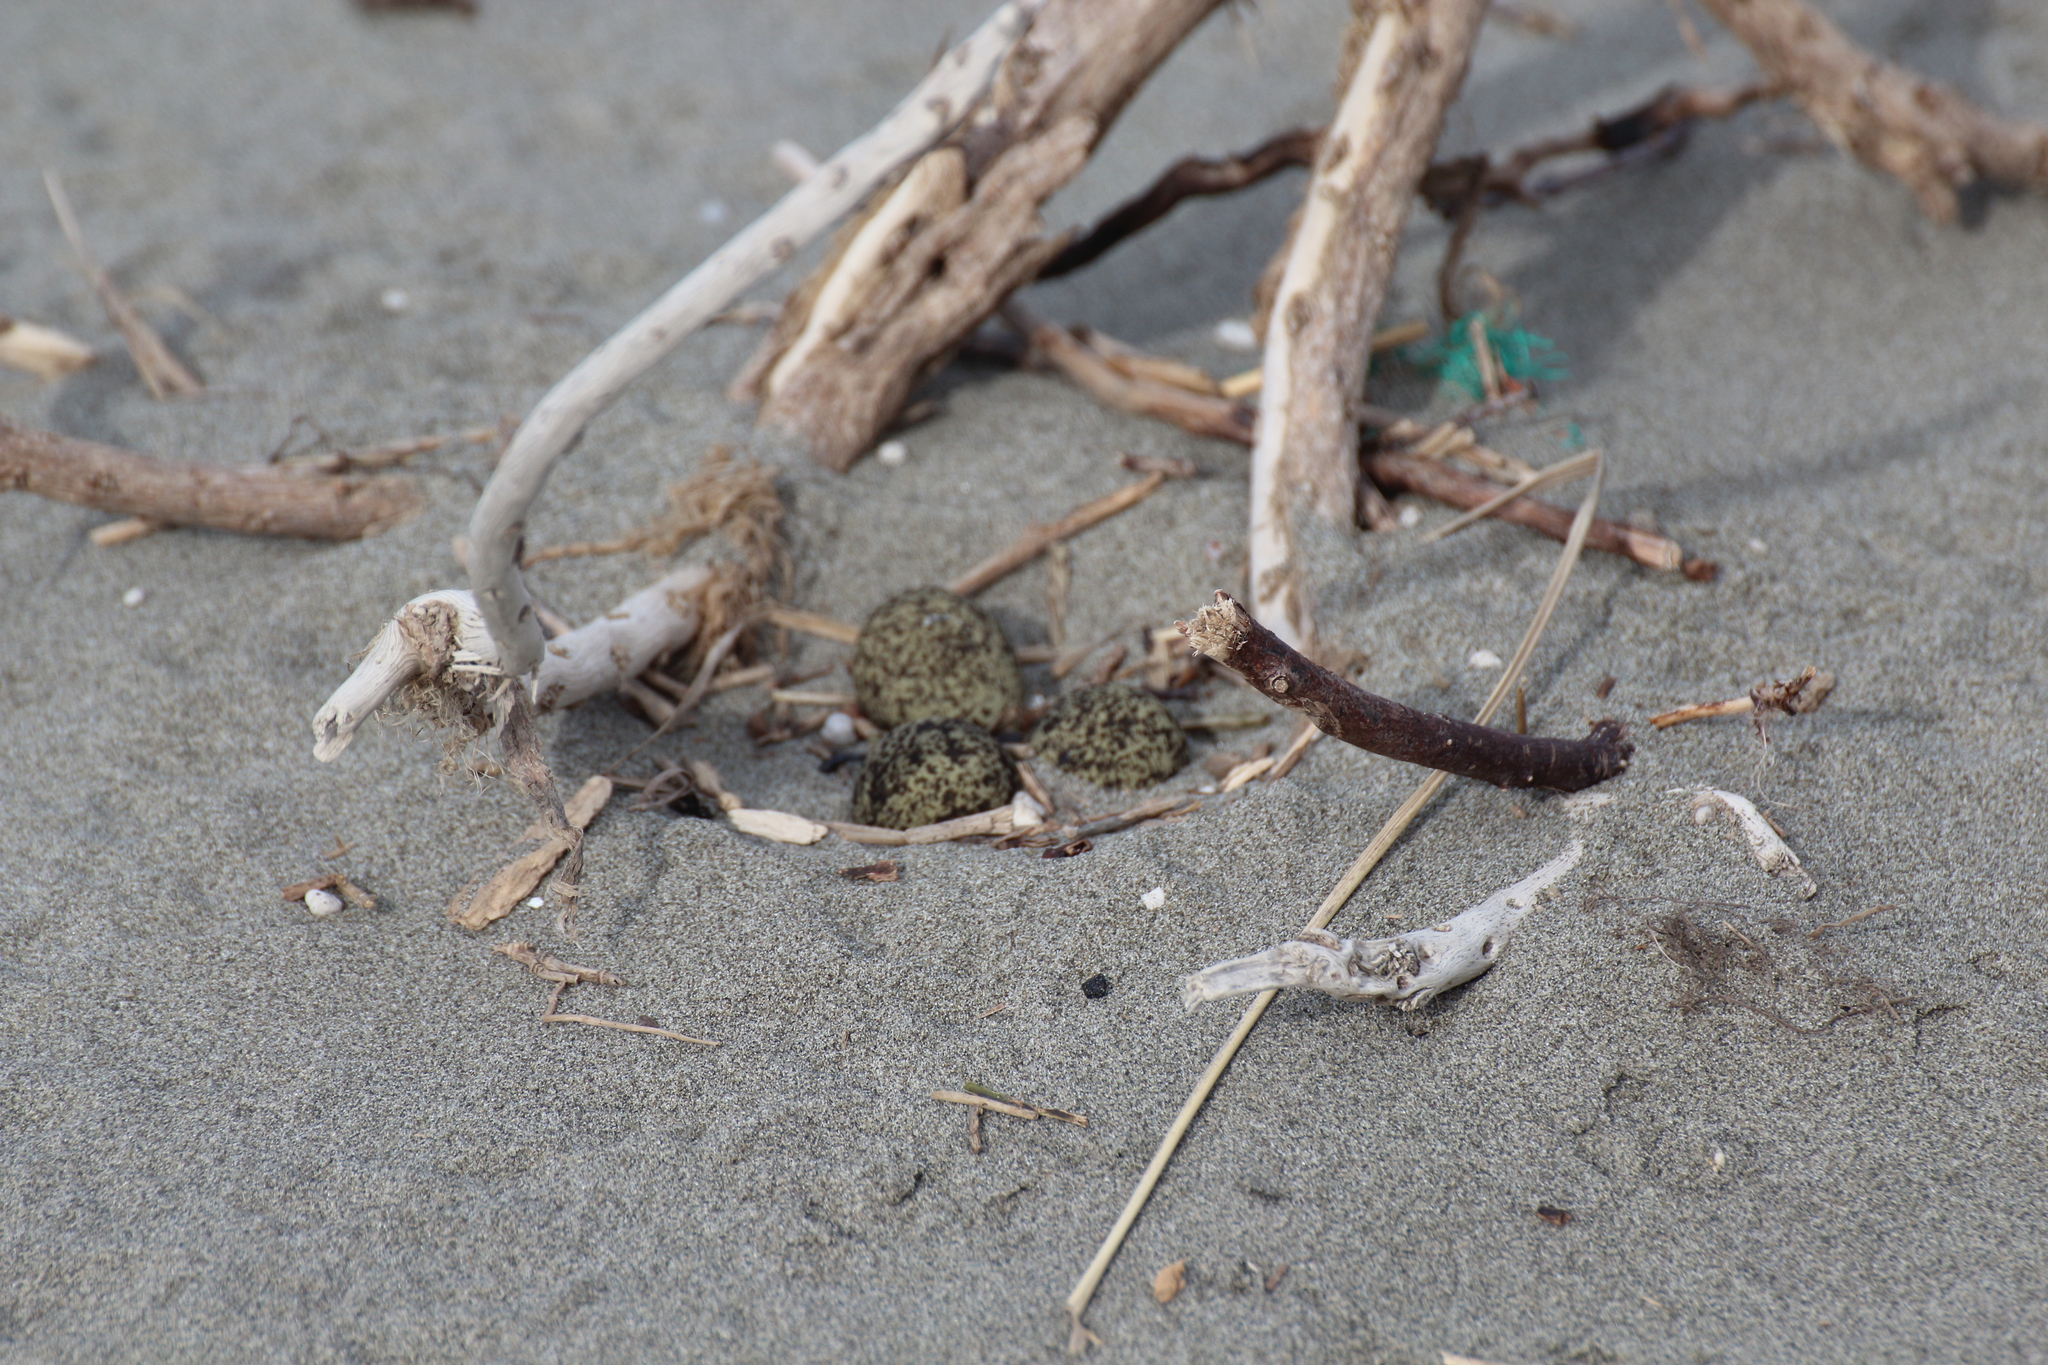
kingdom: Animalia
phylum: Chordata
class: Aves
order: Charadriiformes
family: Charadriidae
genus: Anarhynchus
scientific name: Anarhynchus
